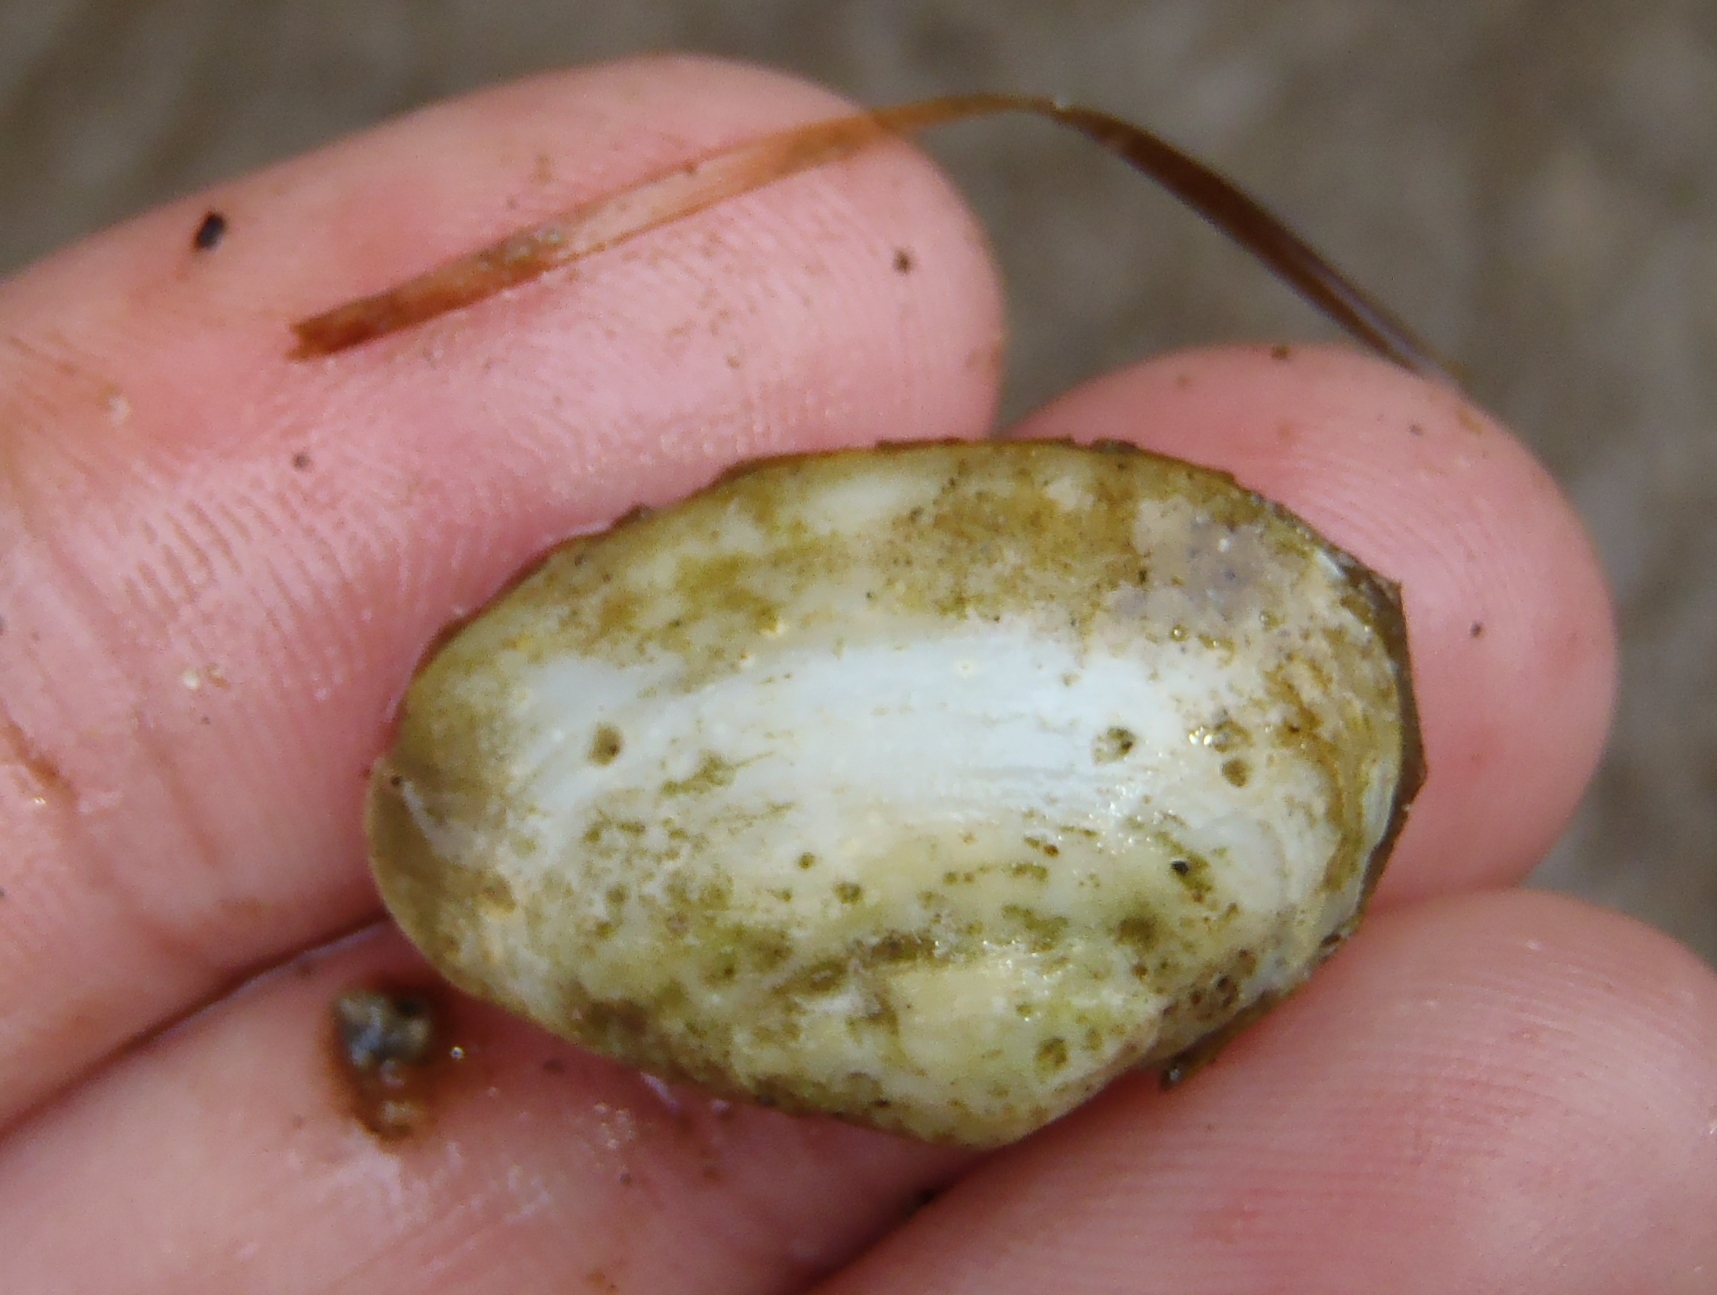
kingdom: Animalia
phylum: Mollusca
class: Bivalvia
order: Venerida
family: Mesodesmatidae
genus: Paphies
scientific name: Paphies australis
